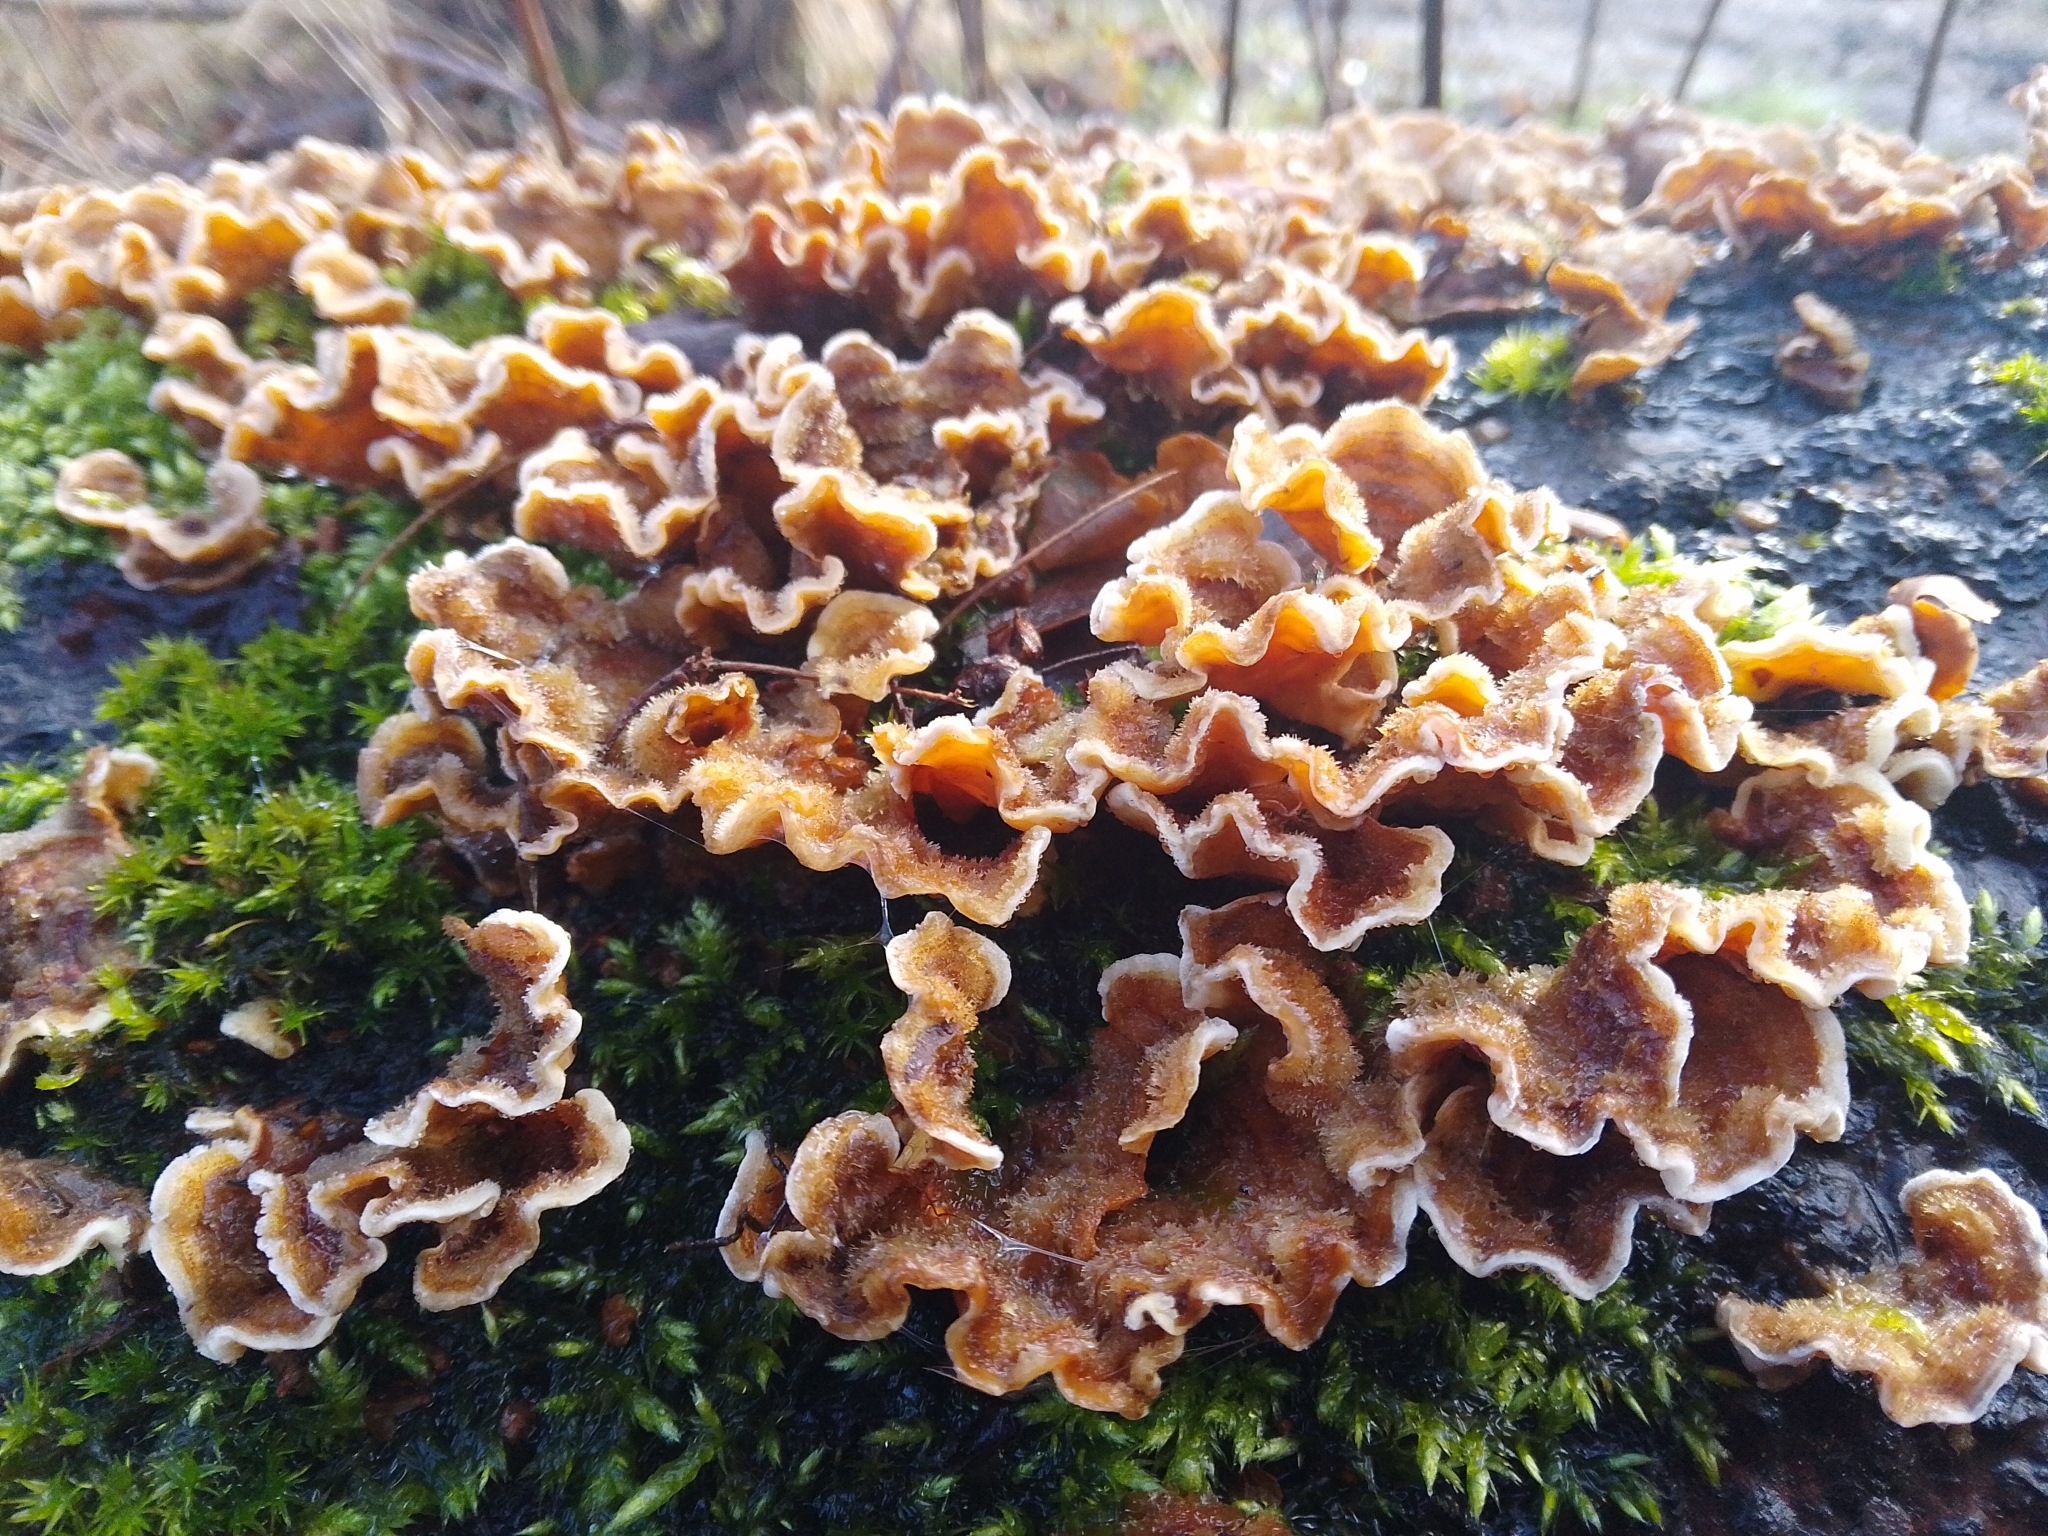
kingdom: Fungi
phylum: Basidiomycota
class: Agaricomycetes
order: Russulales
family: Stereaceae
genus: Stereum
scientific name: Stereum hirsutum
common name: Hairy curtain crust
